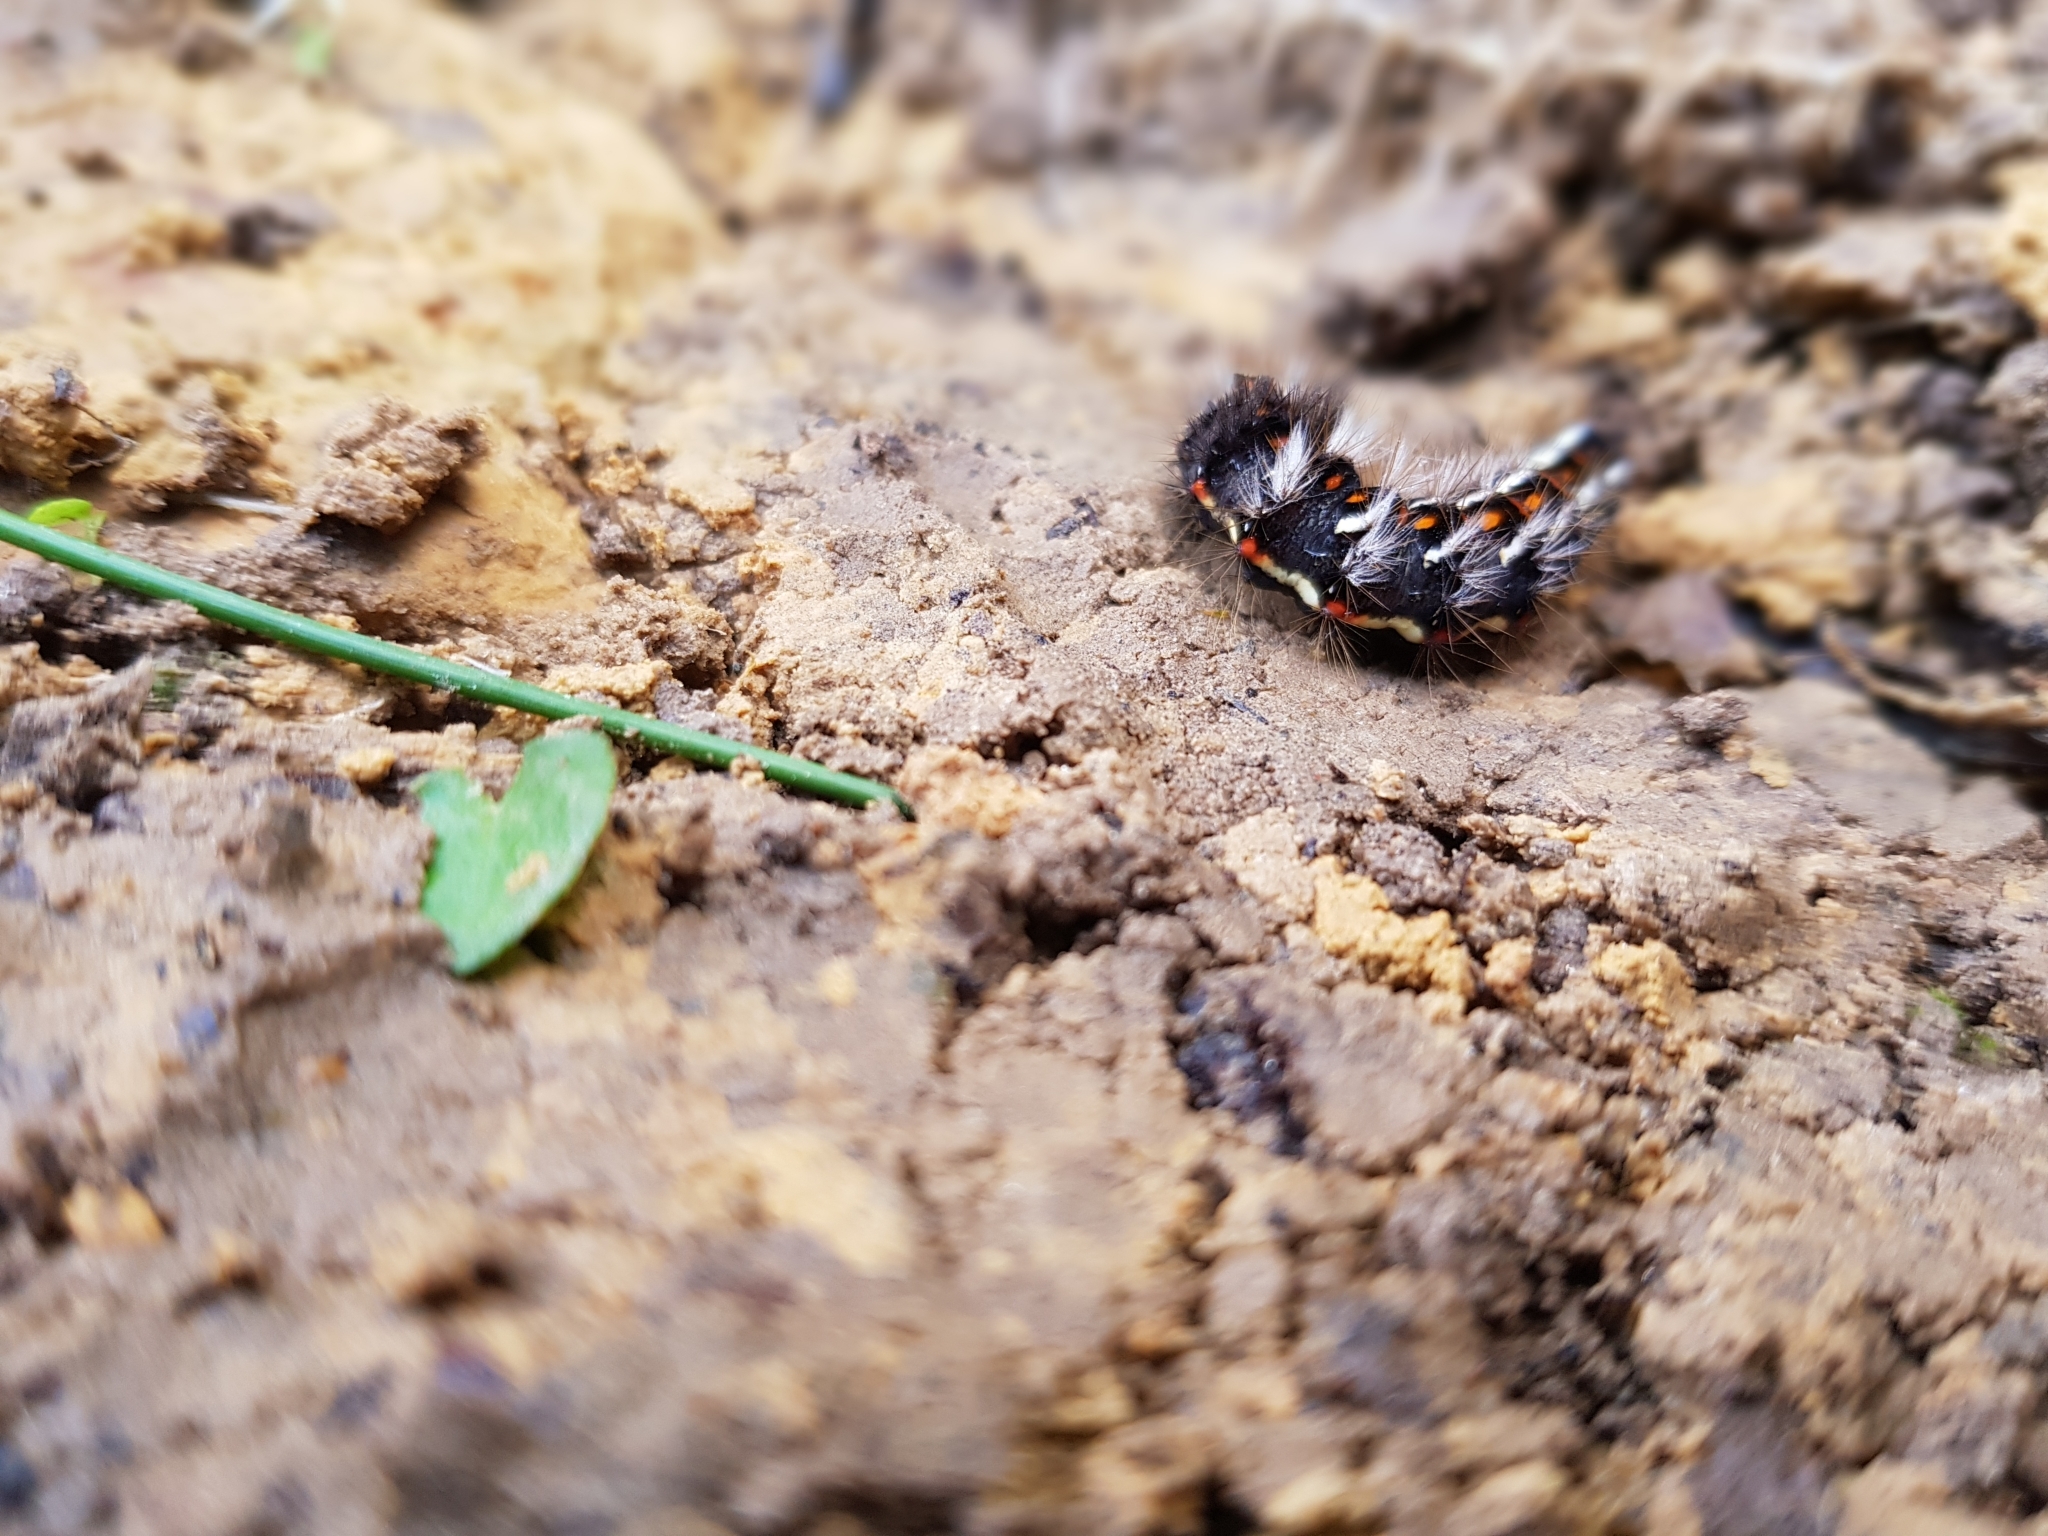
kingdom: Animalia
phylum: Arthropoda
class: Insecta
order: Lepidoptera
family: Noctuidae
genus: Acronicta
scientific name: Acronicta rumicis
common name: Knot grass
